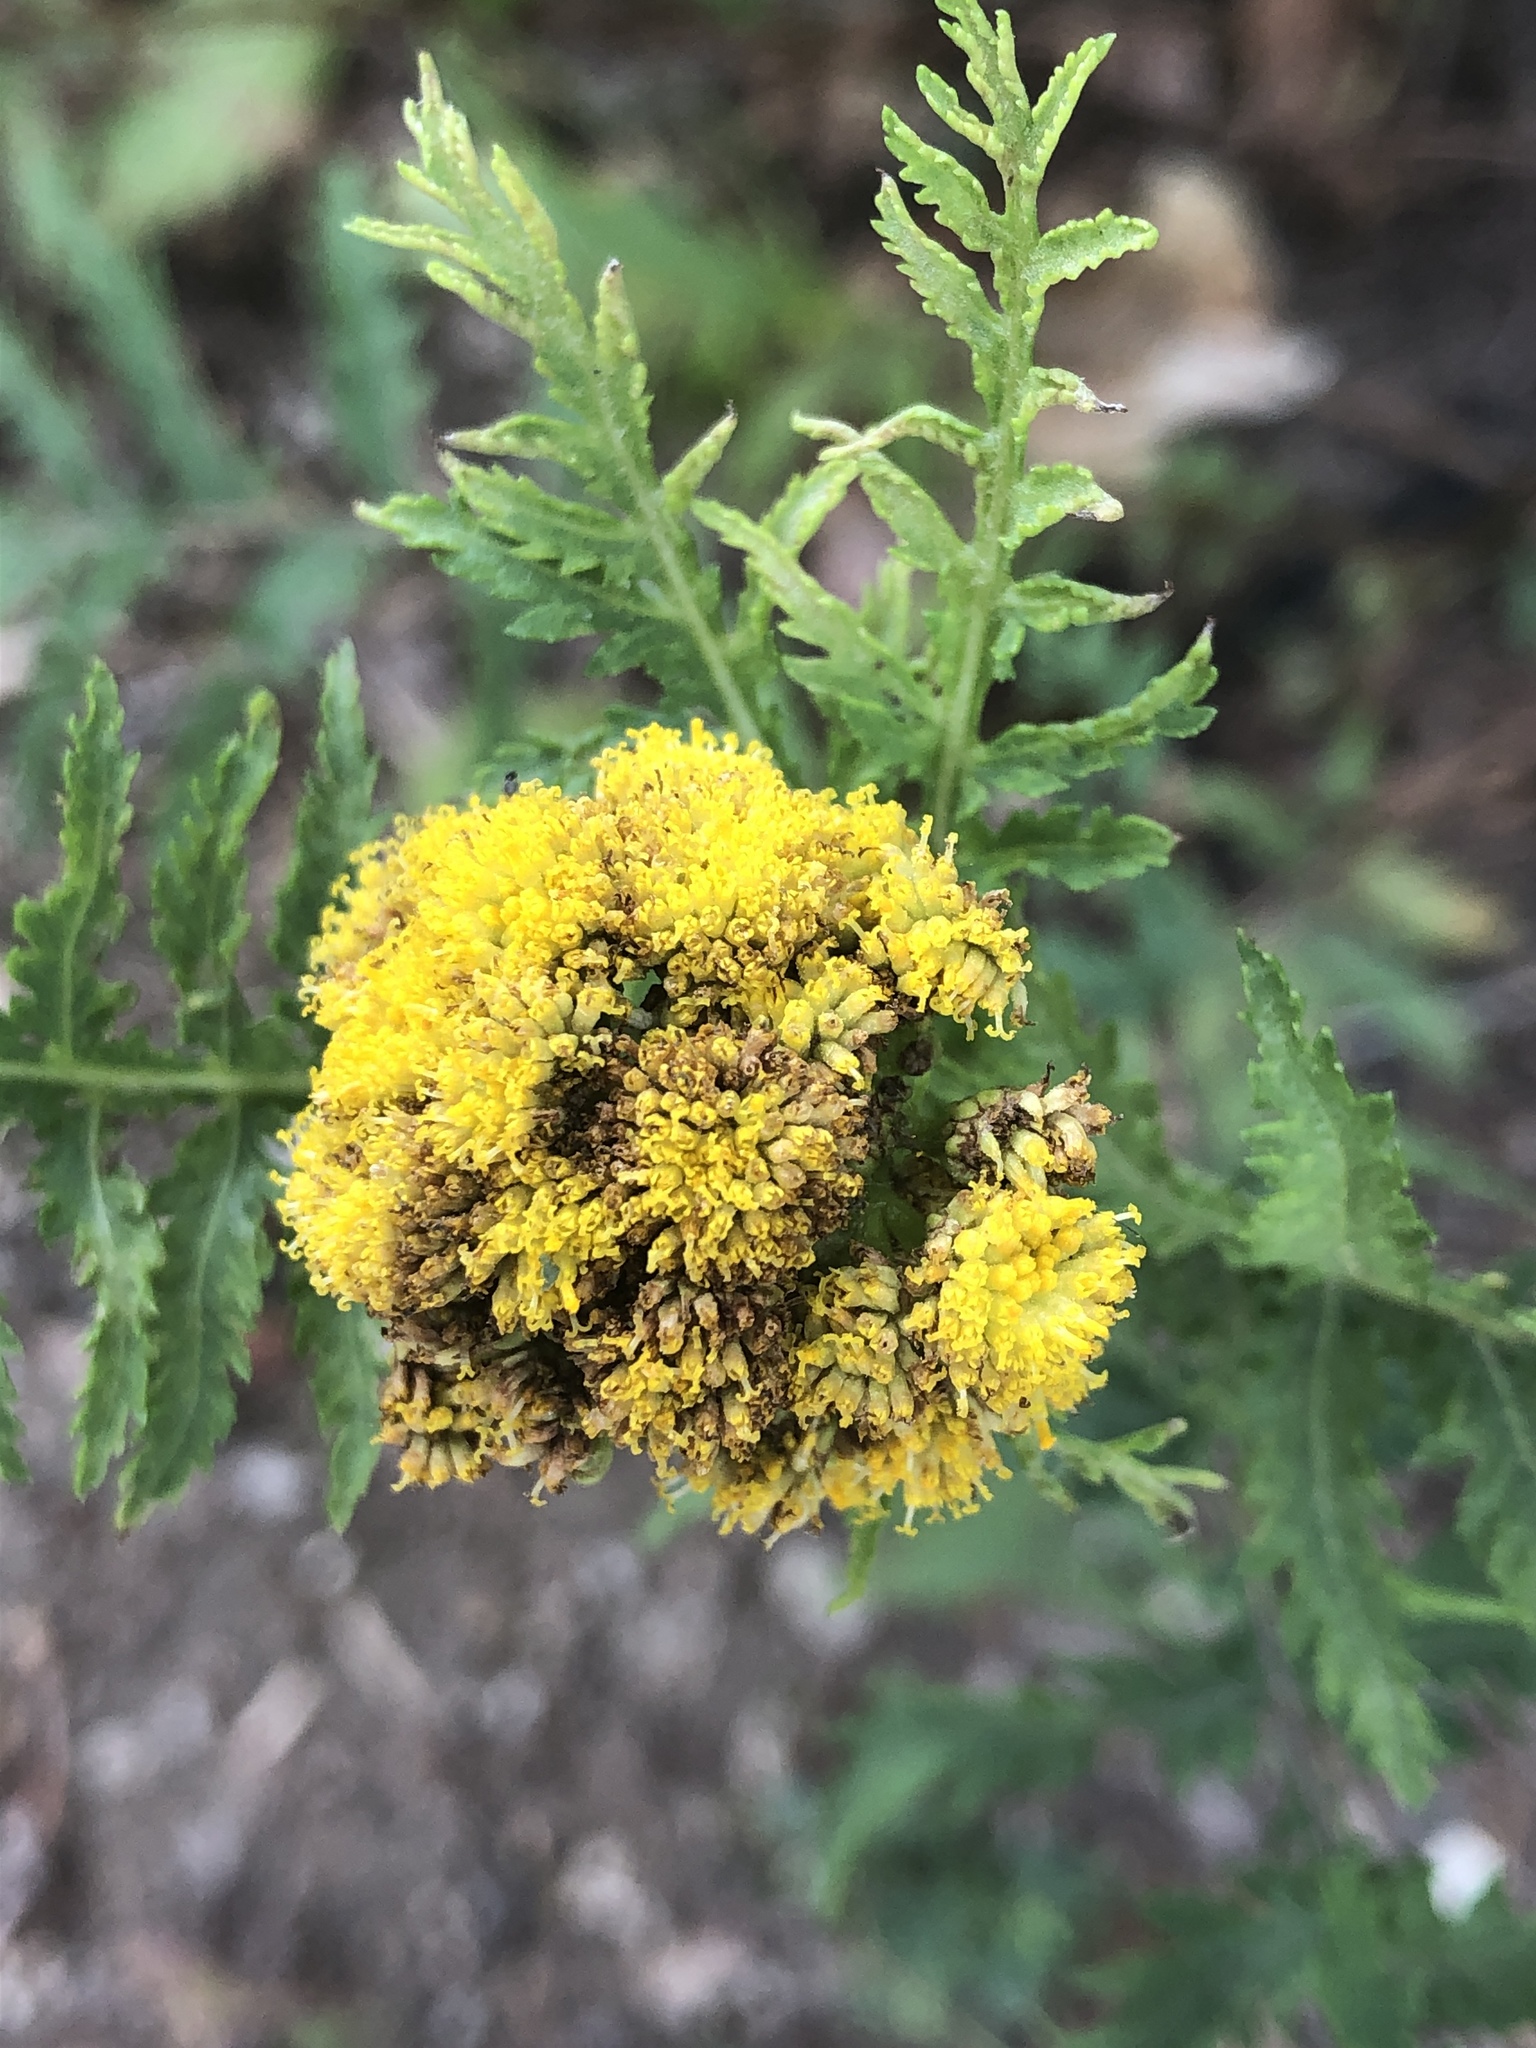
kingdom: Plantae
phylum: Tracheophyta
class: Magnoliopsida
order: Asterales
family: Asteraceae
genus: Tanacetum
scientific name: Tanacetum vulgare
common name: Common tansy
